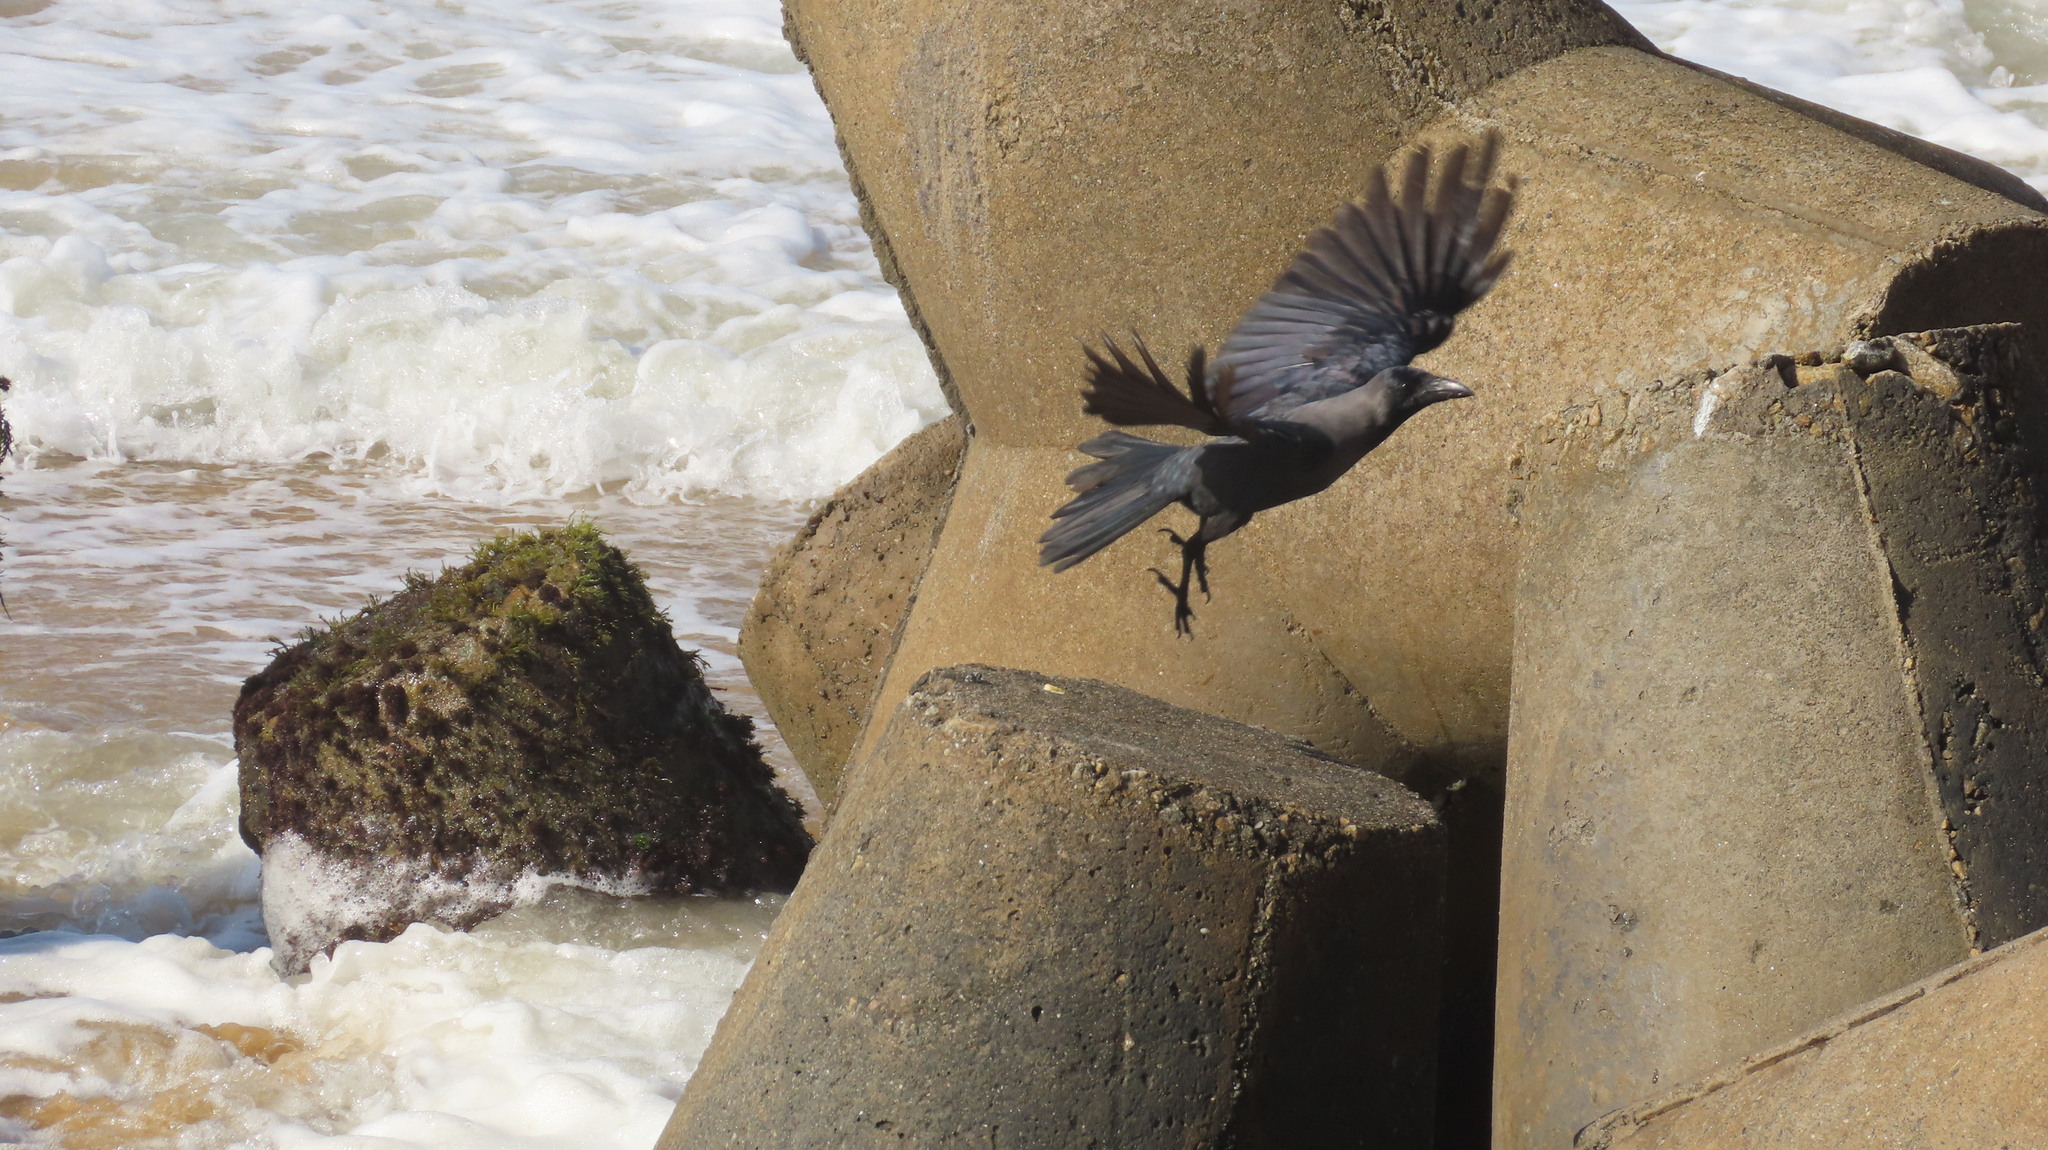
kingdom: Animalia
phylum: Chordata
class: Aves
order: Passeriformes
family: Corvidae
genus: Corvus
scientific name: Corvus splendens
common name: House crow
